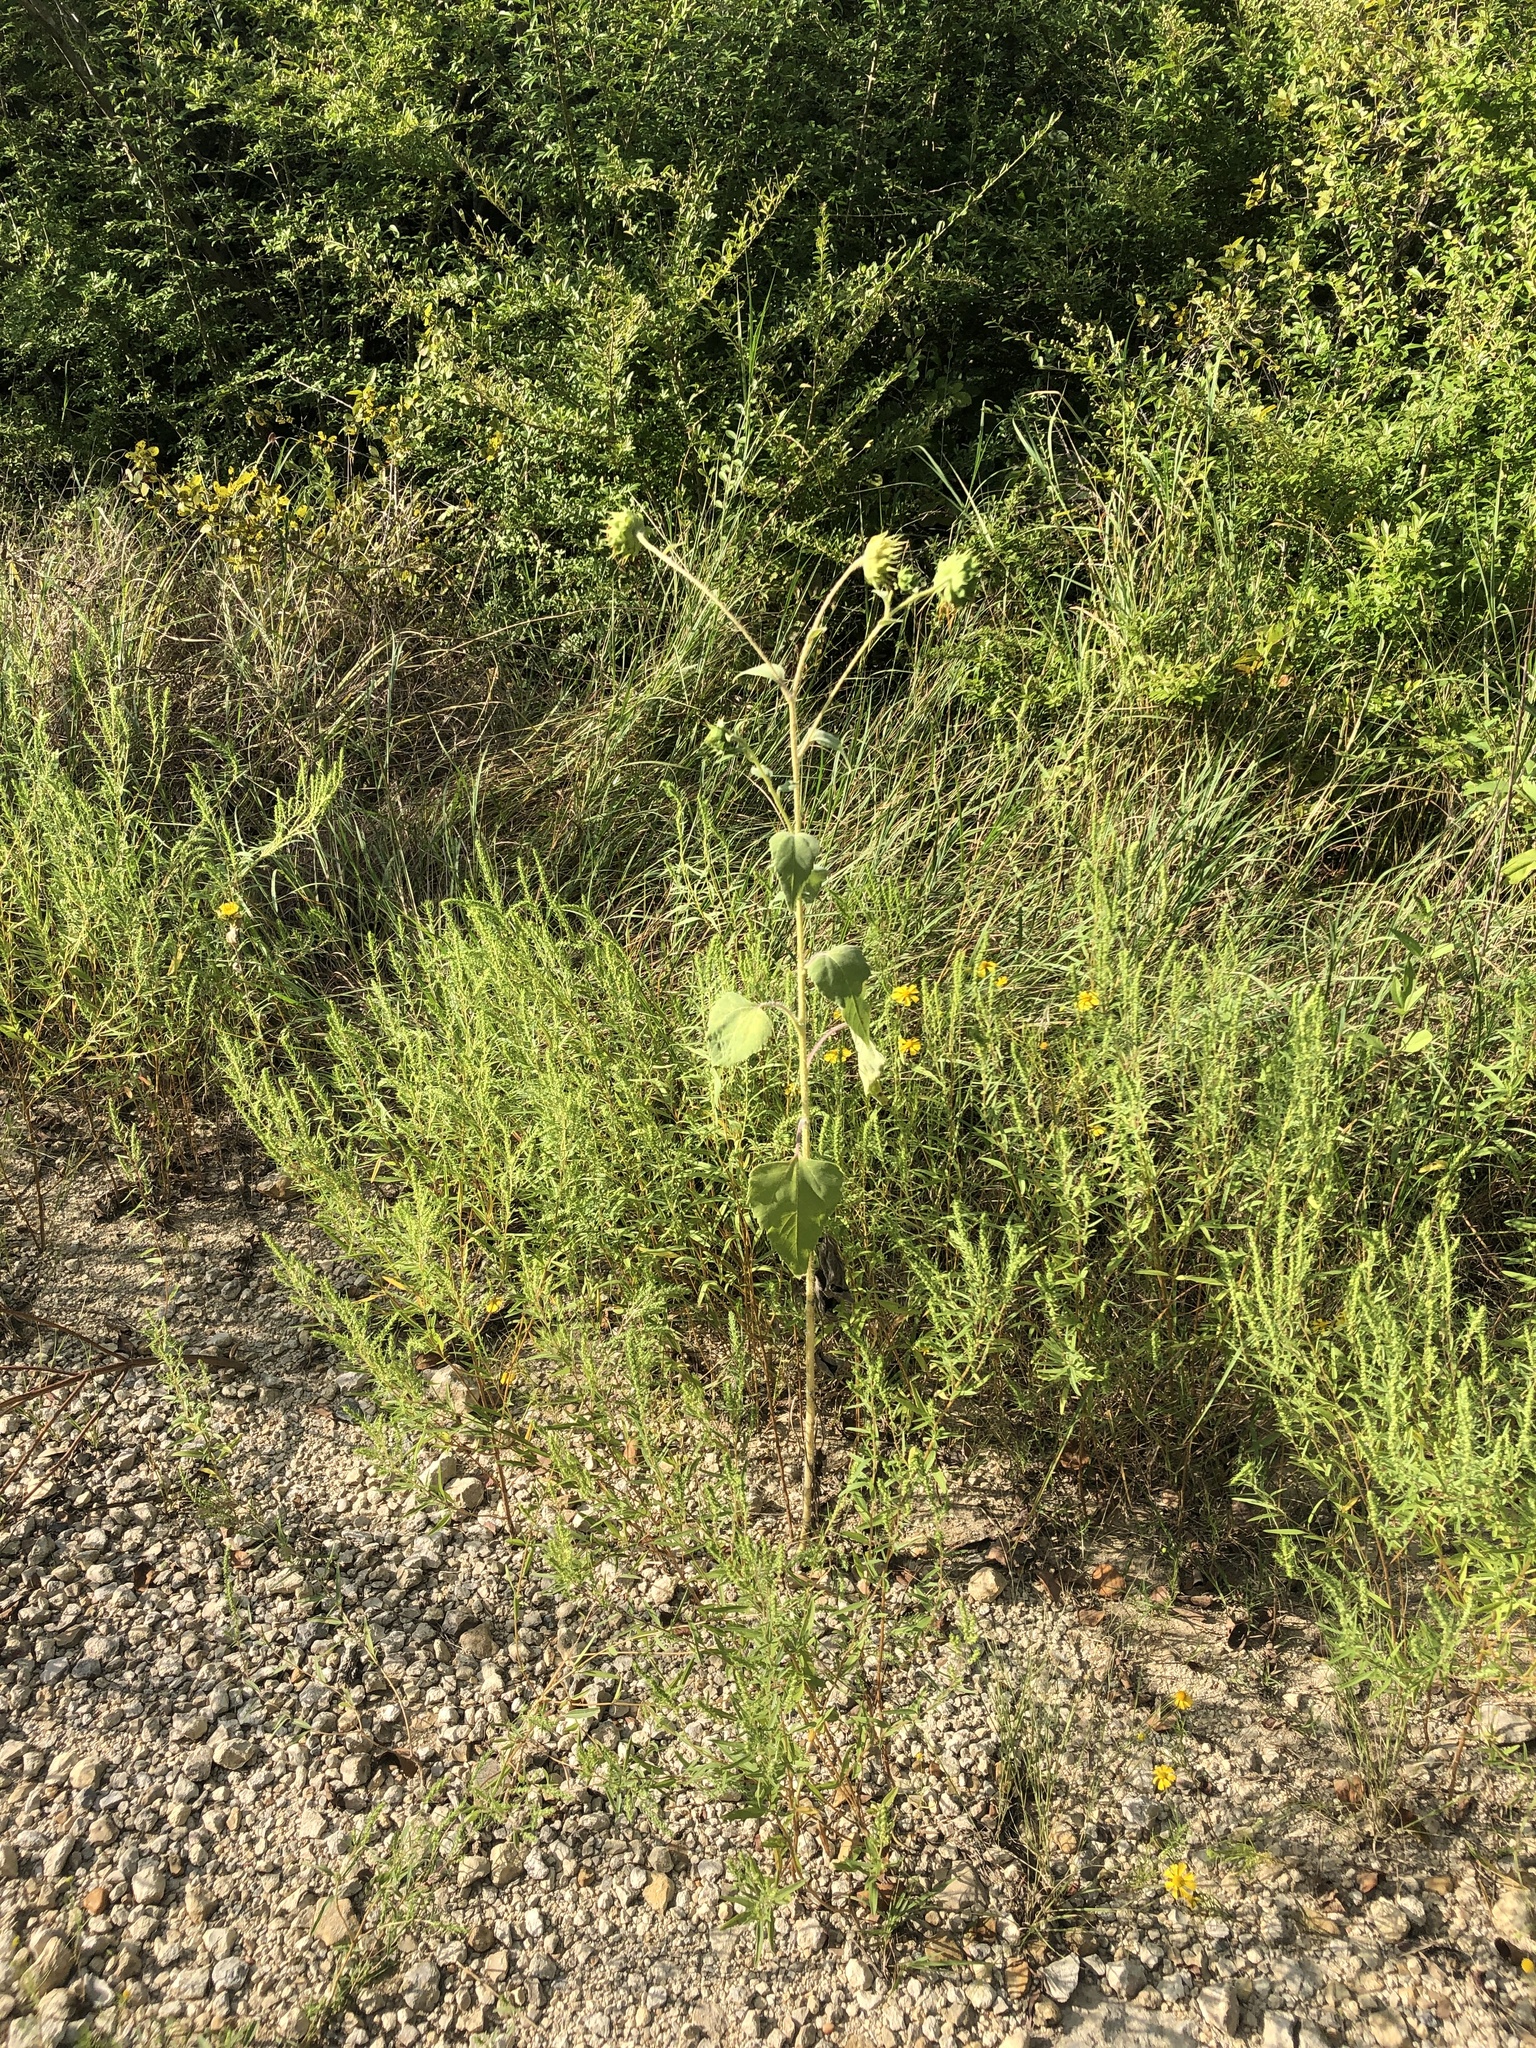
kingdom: Plantae
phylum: Tracheophyta
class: Magnoliopsida
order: Asterales
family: Asteraceae
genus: Helianthus
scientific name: Helianthus annuus
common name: Sunflower
